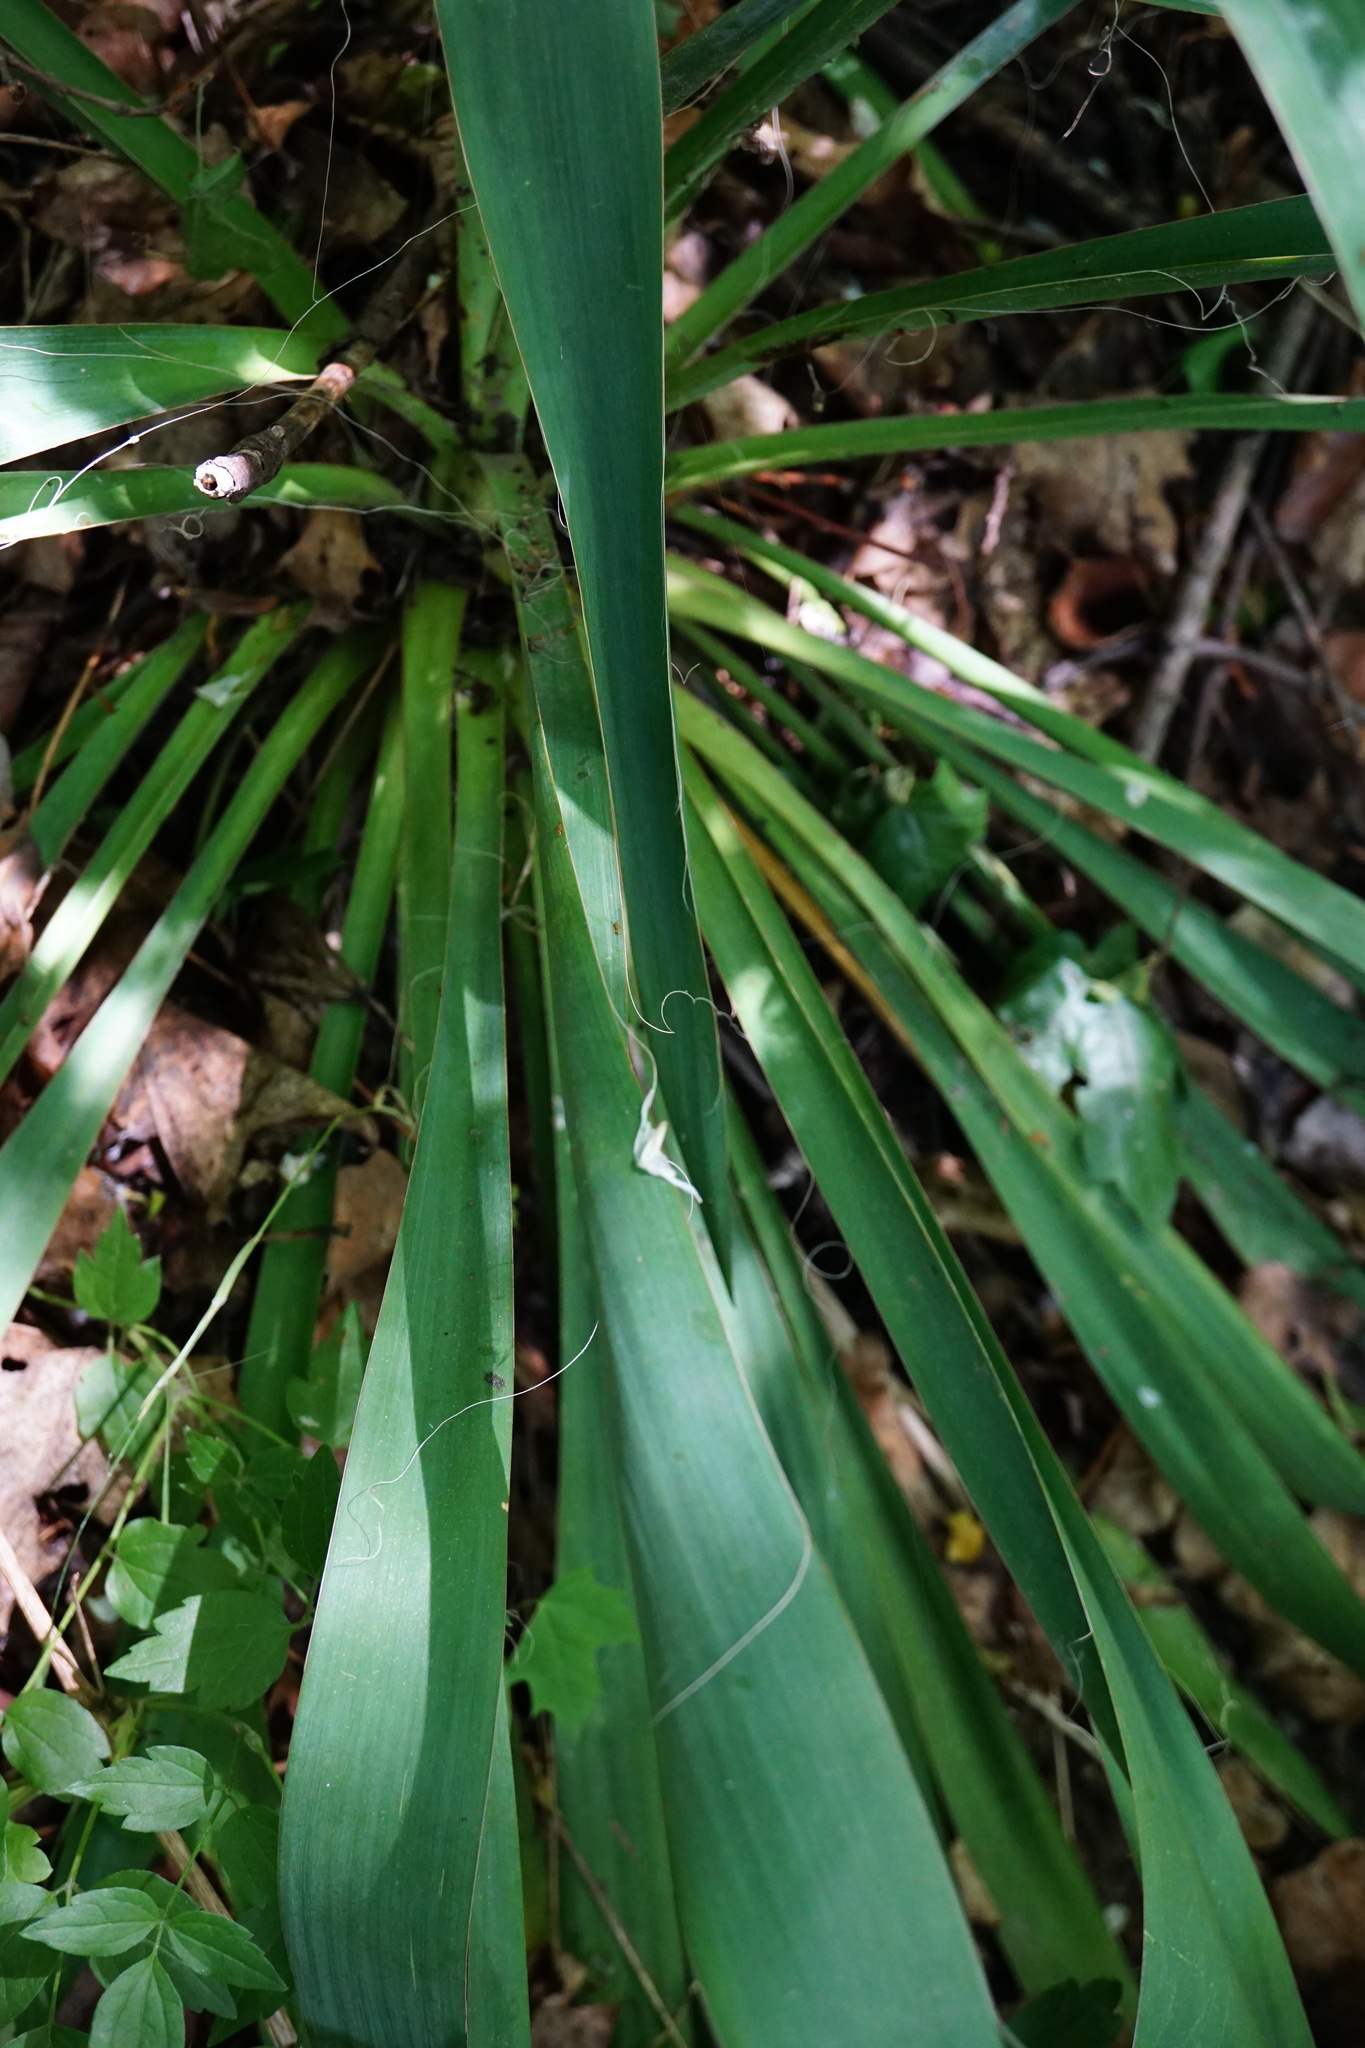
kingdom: Plantae
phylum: Tracheophyta
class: Liliopsida
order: Asparagales
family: Asparagaceae
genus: Yucca
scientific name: Yucca filamentosa
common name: Adam's-needle
